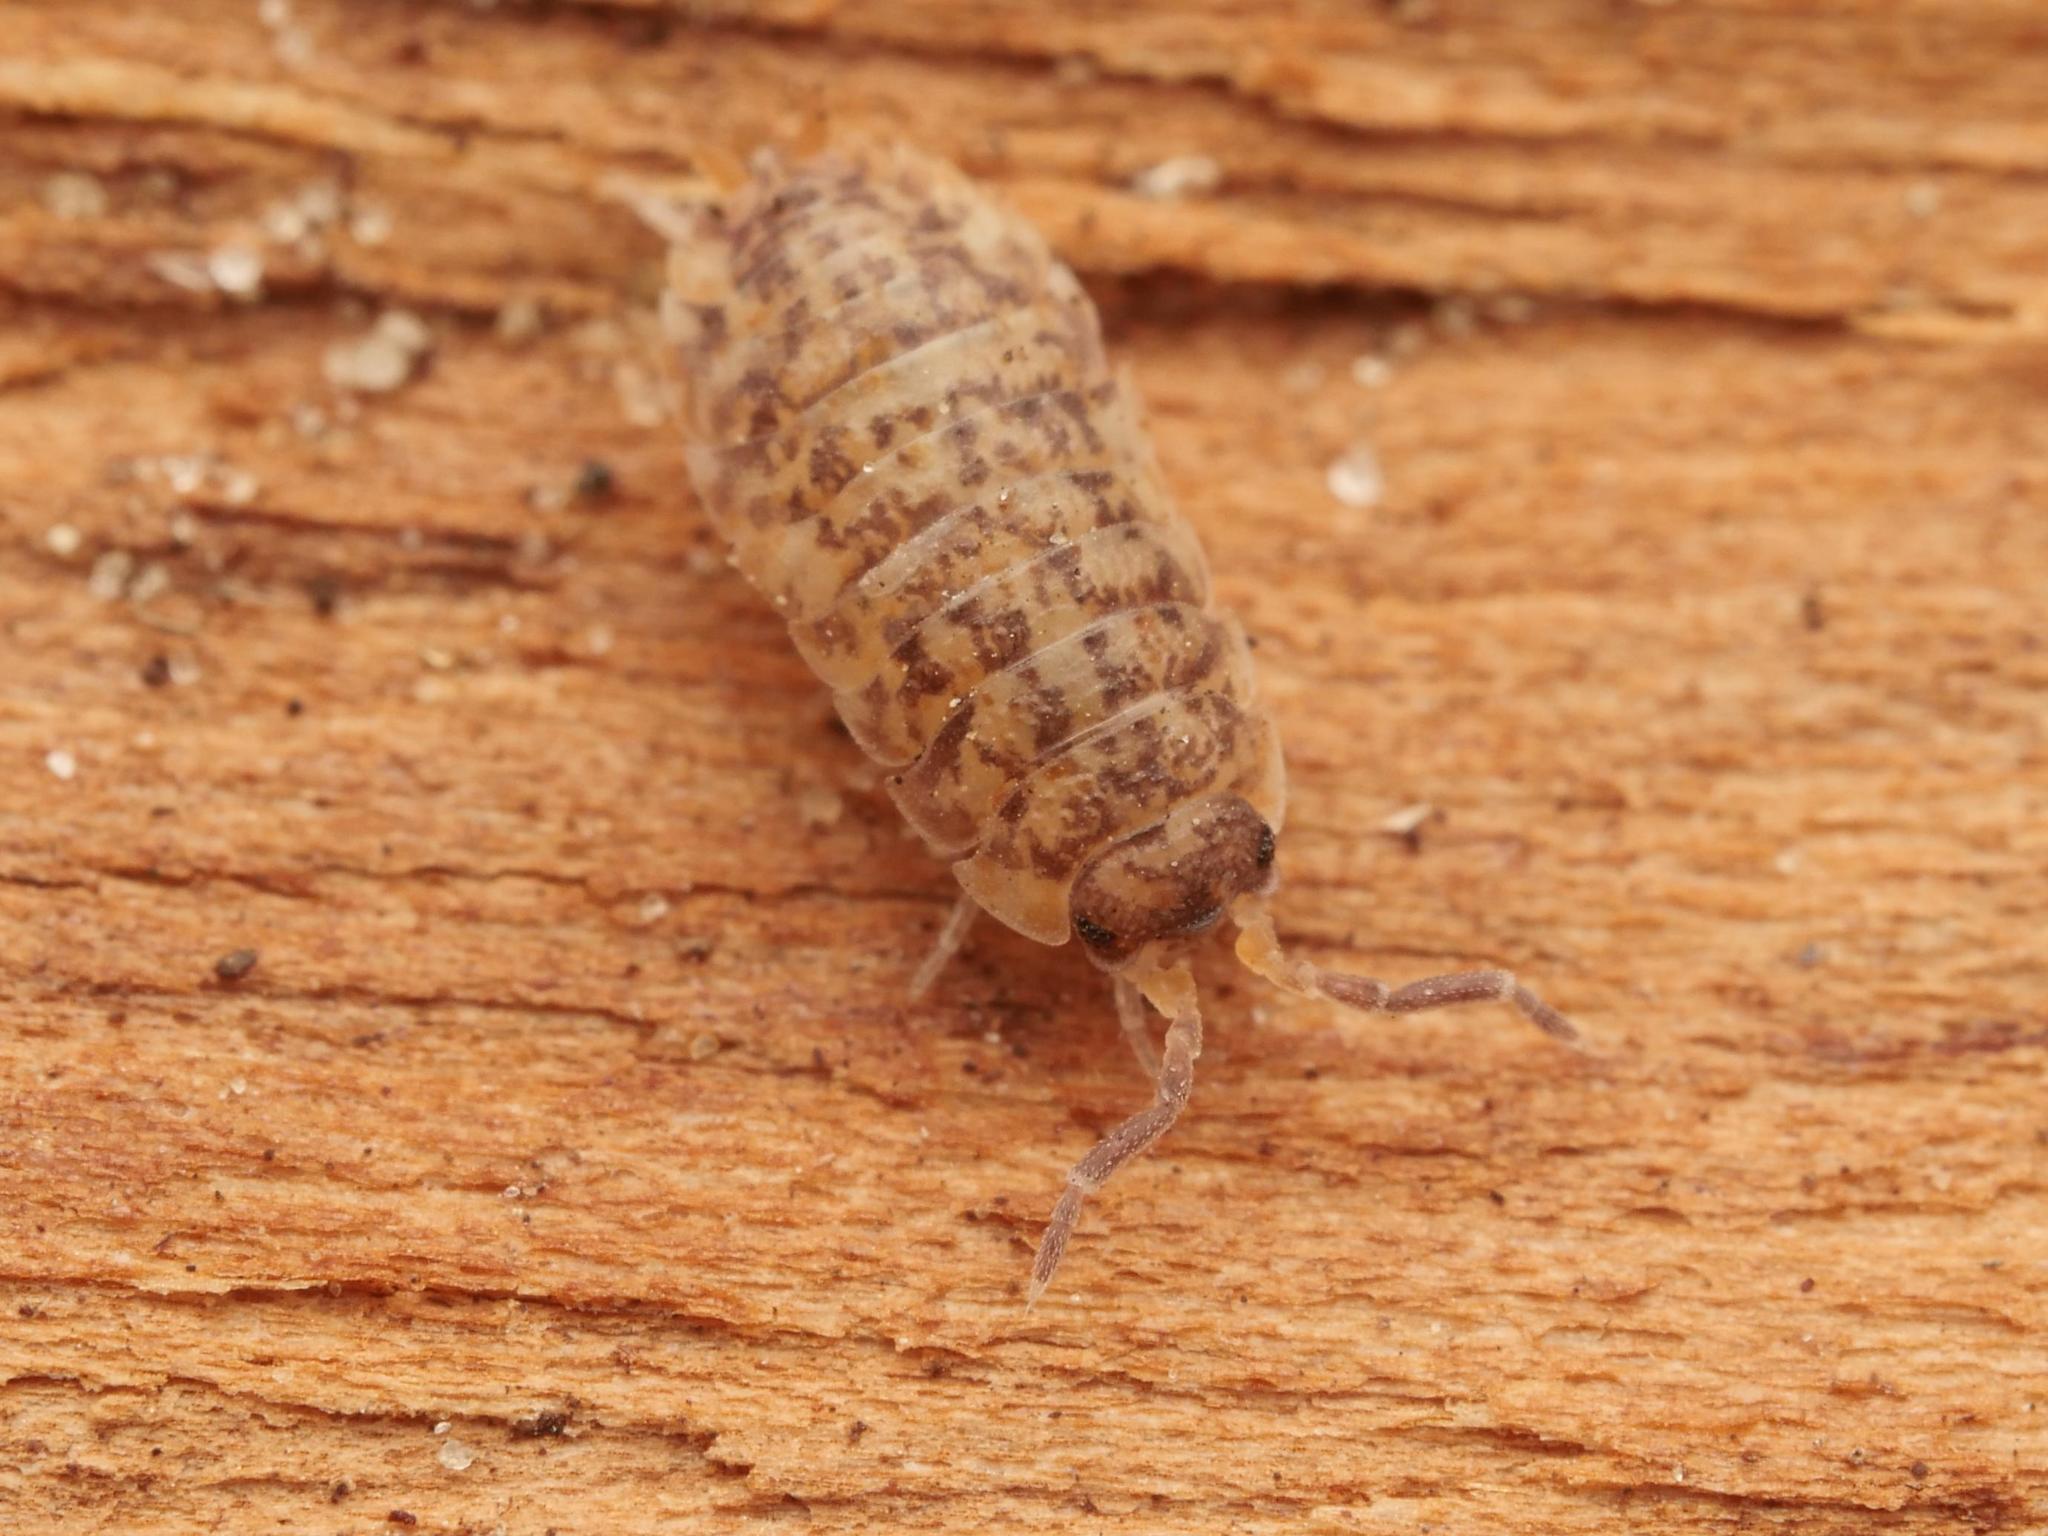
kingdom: Animalia
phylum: Arthropoda
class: Malacostraca
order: Isopoda
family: Porcellionidae
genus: Porcellio
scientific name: Porcellio scaber
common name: Common rough woodlouse
